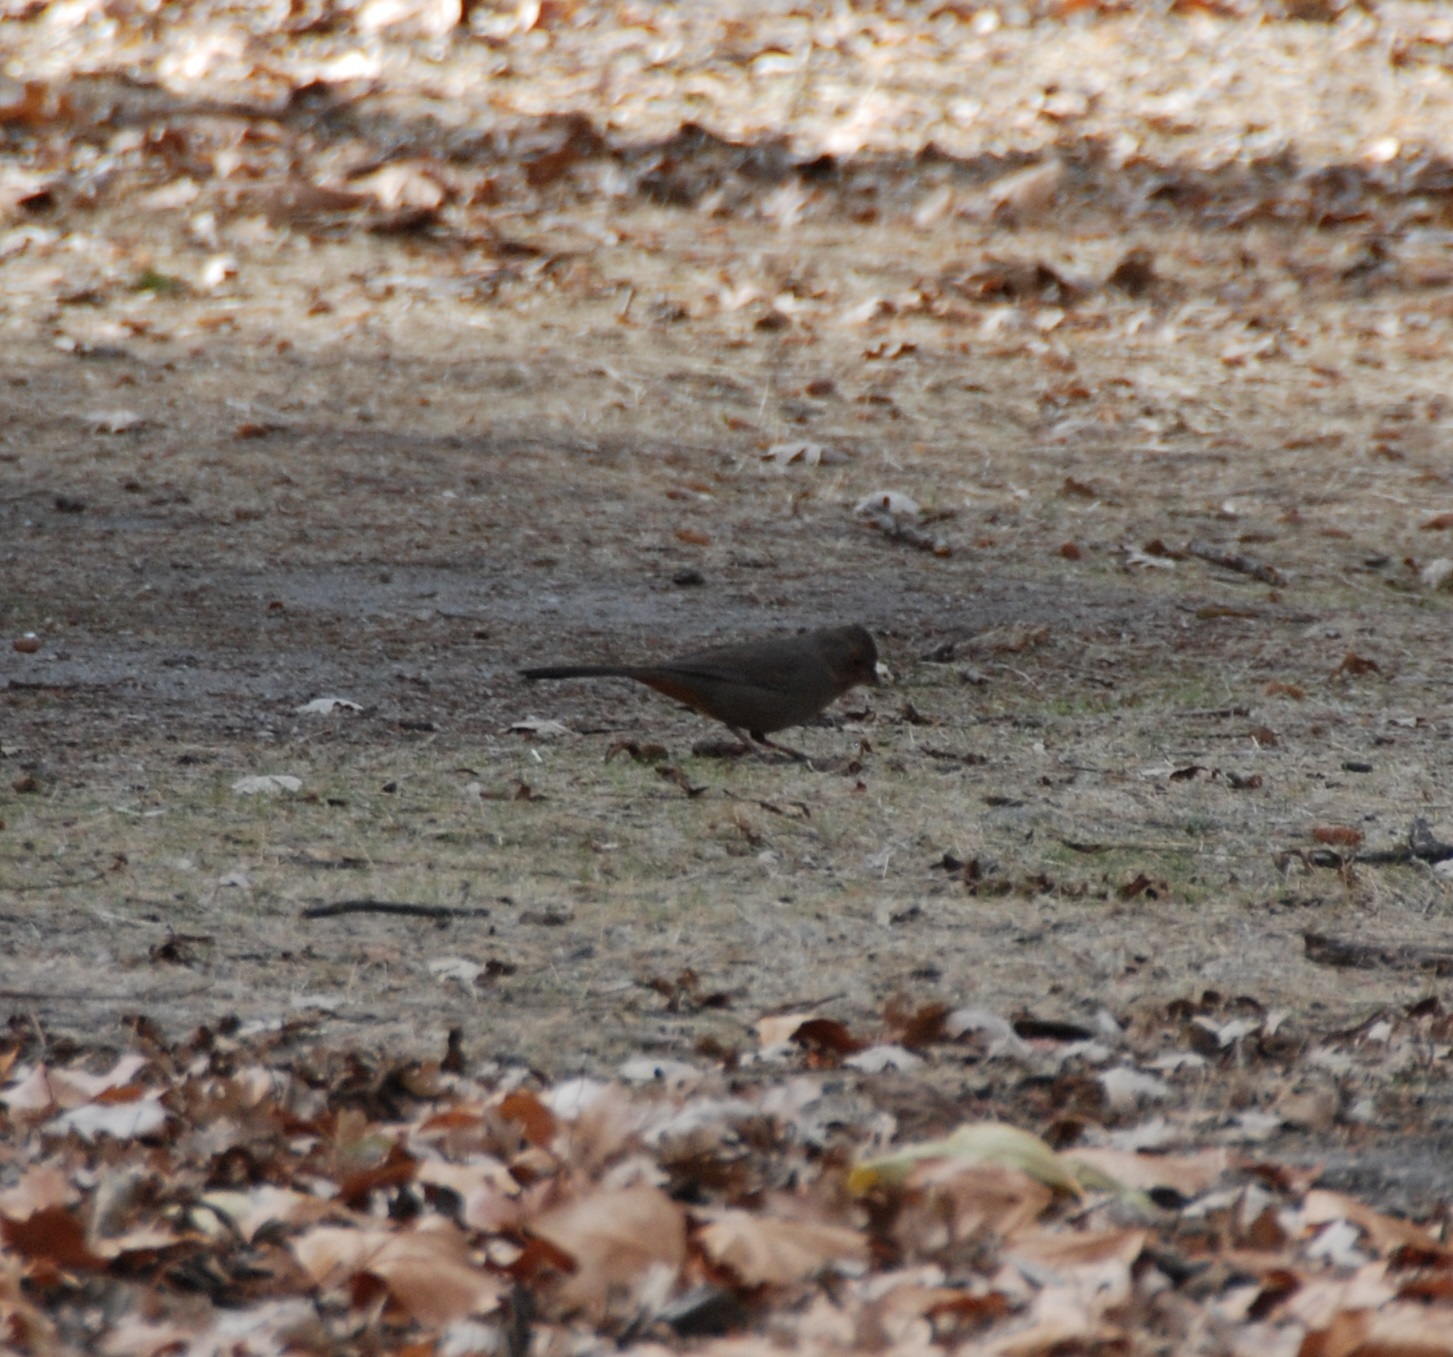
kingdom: Animalia
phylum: Chordata
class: Aves
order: Passeriformes
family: Passerellidae
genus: Melozone
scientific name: Melozone crissalis
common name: California towhee
